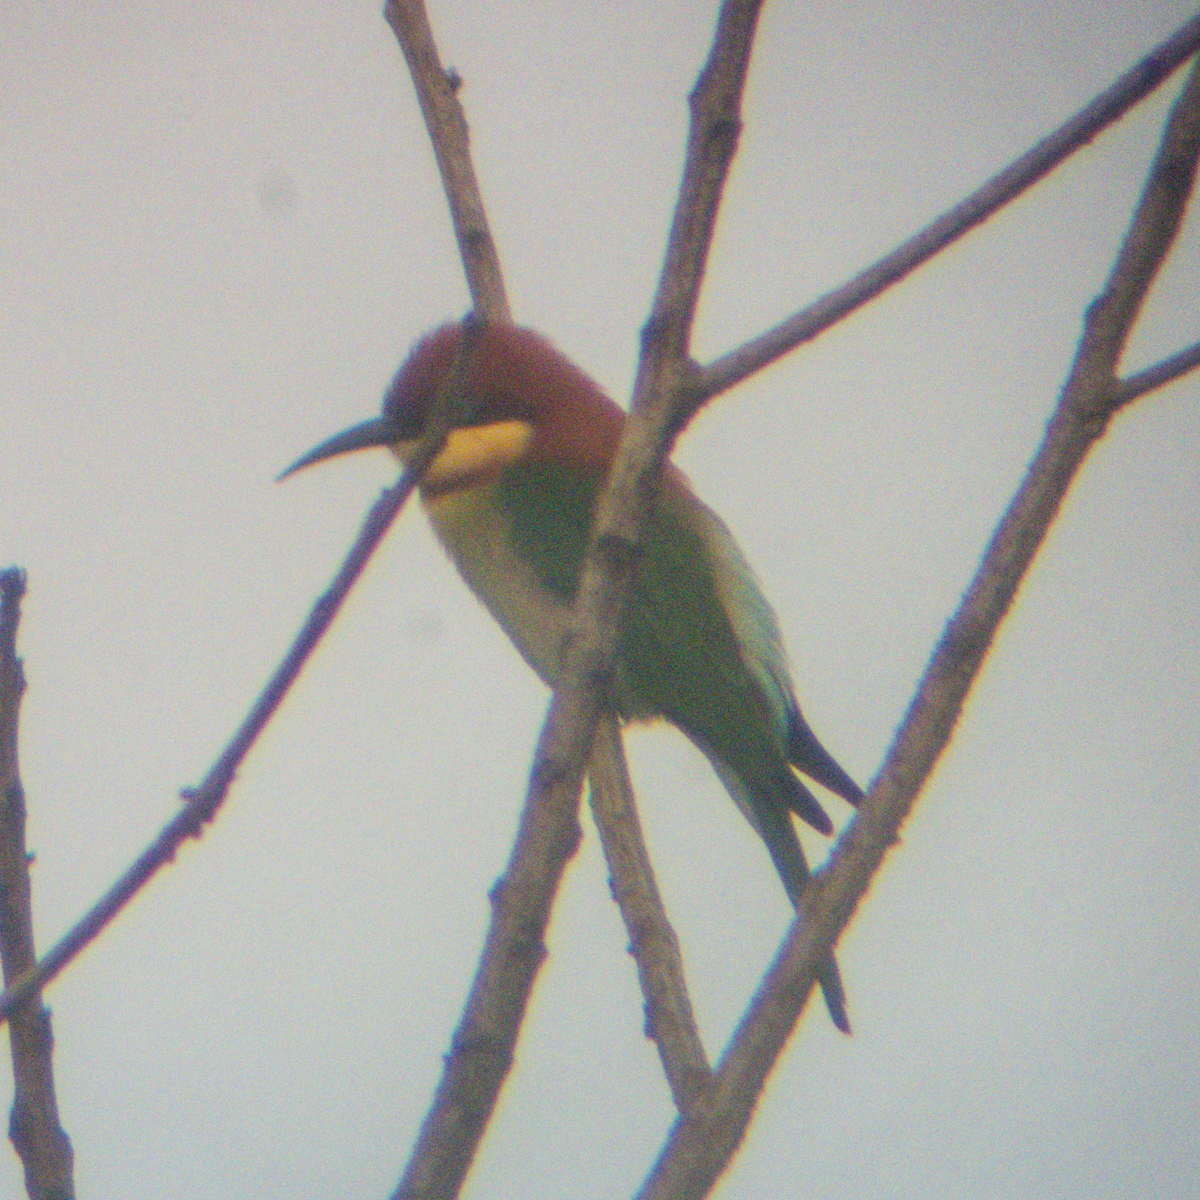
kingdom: Animalia
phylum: Chordata
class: Aves
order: Coraciiformes
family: Meropidae
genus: Merops
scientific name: Merops leschenaulti
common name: Chestnut-headed bee-eater
